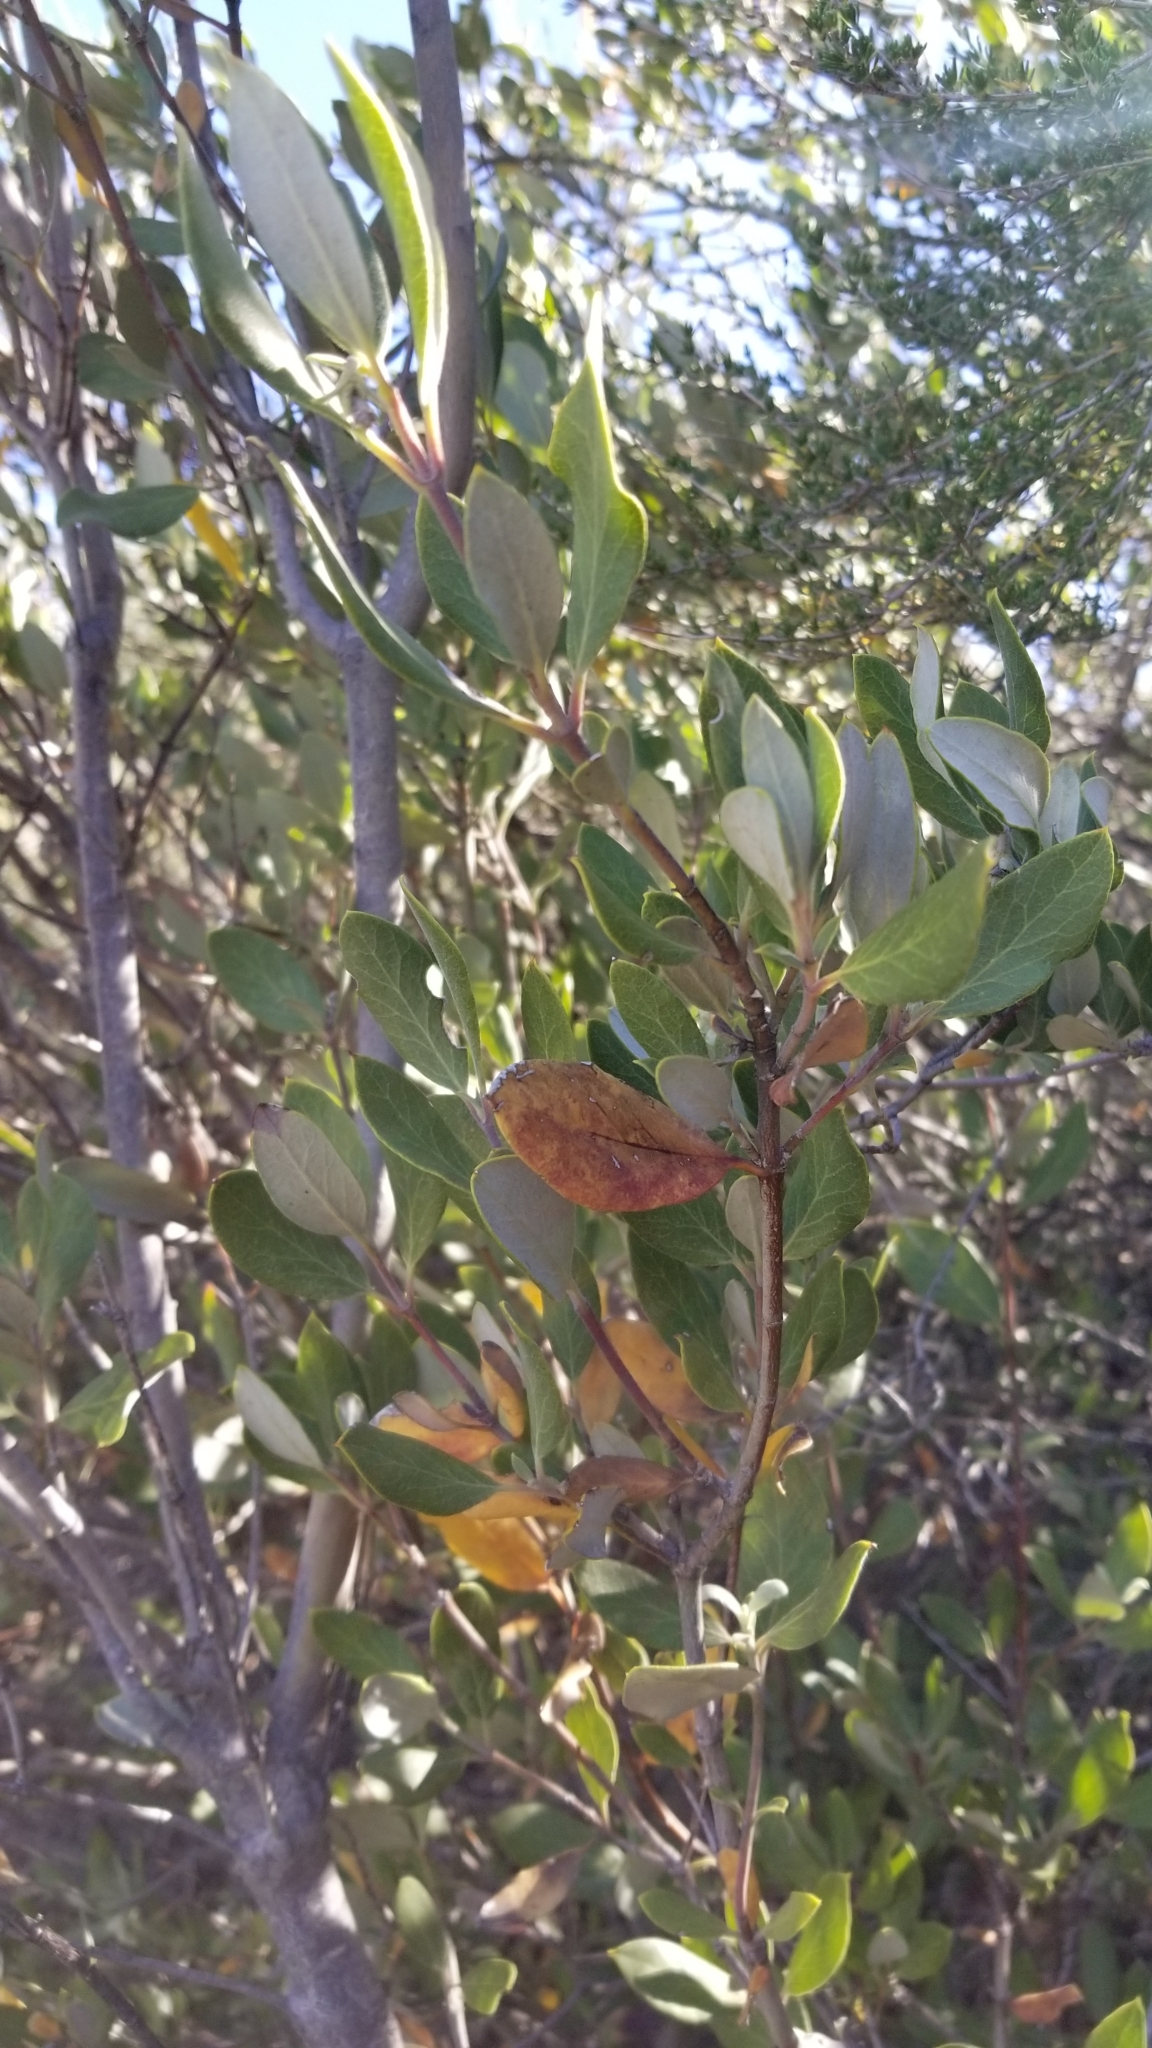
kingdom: Plantae
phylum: Tracheophyta
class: Magnoliopsida
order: Fagales
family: Fagaceae
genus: Quercus
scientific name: Quercus chrysolepis
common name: Canyon live oak
